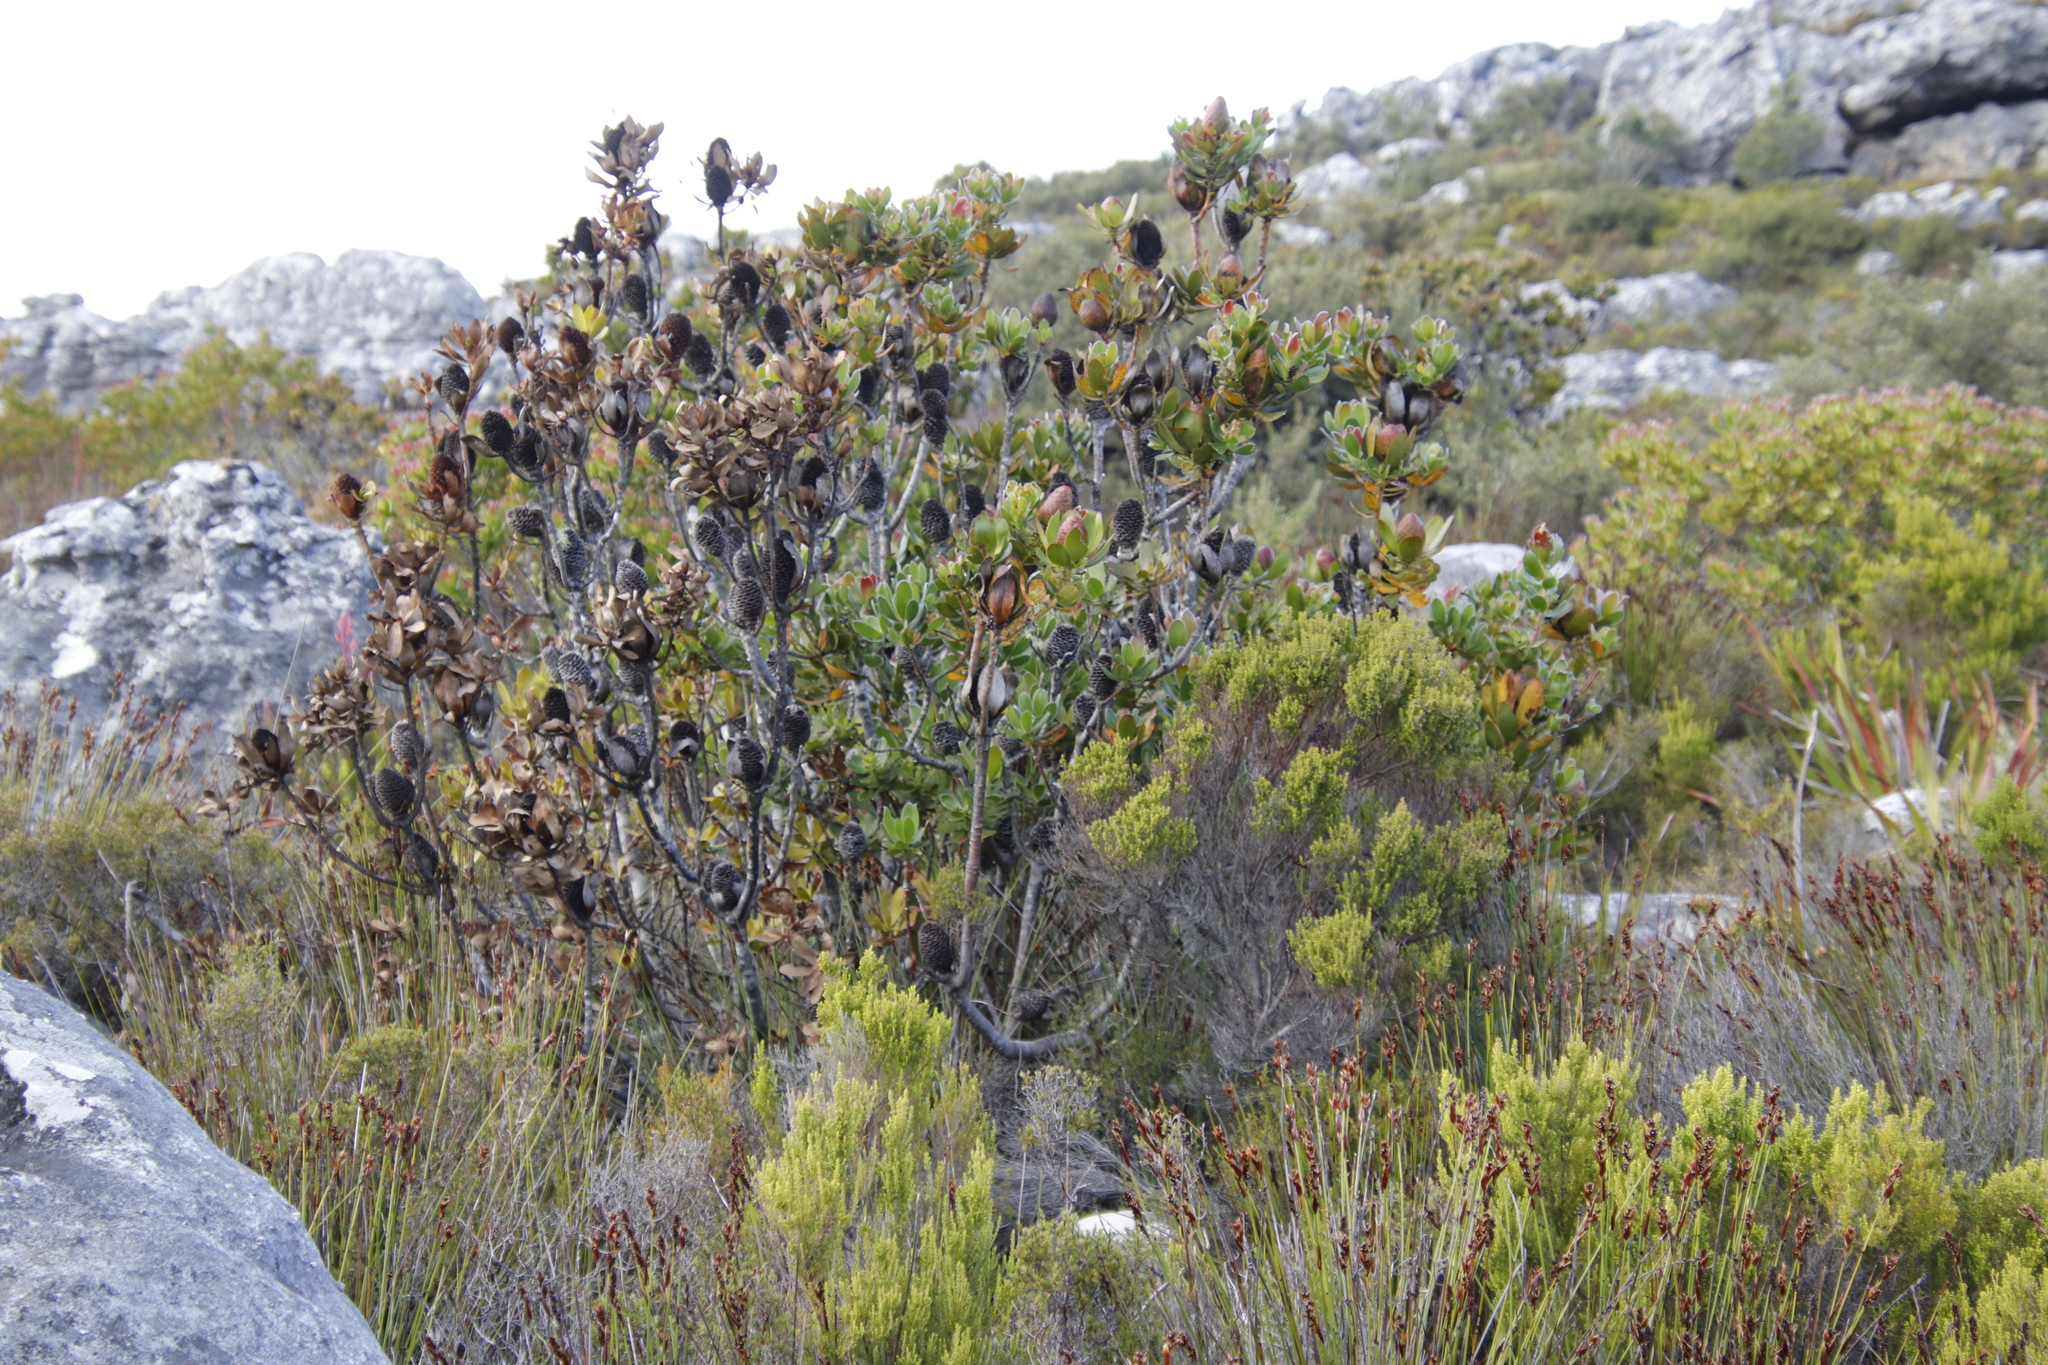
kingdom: Plantae
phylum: Tracheophyta
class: Magnoliopsida
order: Proteales
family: Proteaceae
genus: Leucadendron
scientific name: Leucadendron strobilinum
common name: Mountain rose
